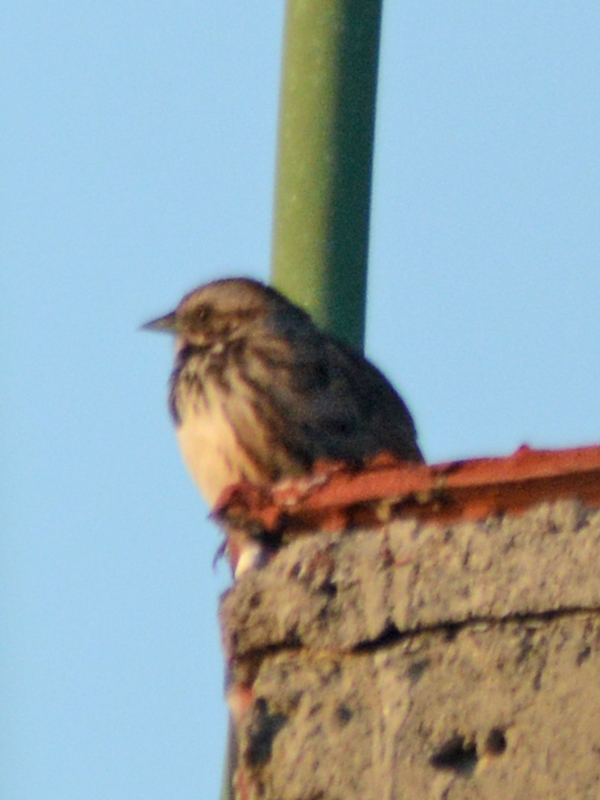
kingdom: Animalia
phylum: Chordata
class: Aves
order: Passeriformes
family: Passerellidae
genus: Melospiza
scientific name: Melospiza melodia
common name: Song sparrow
